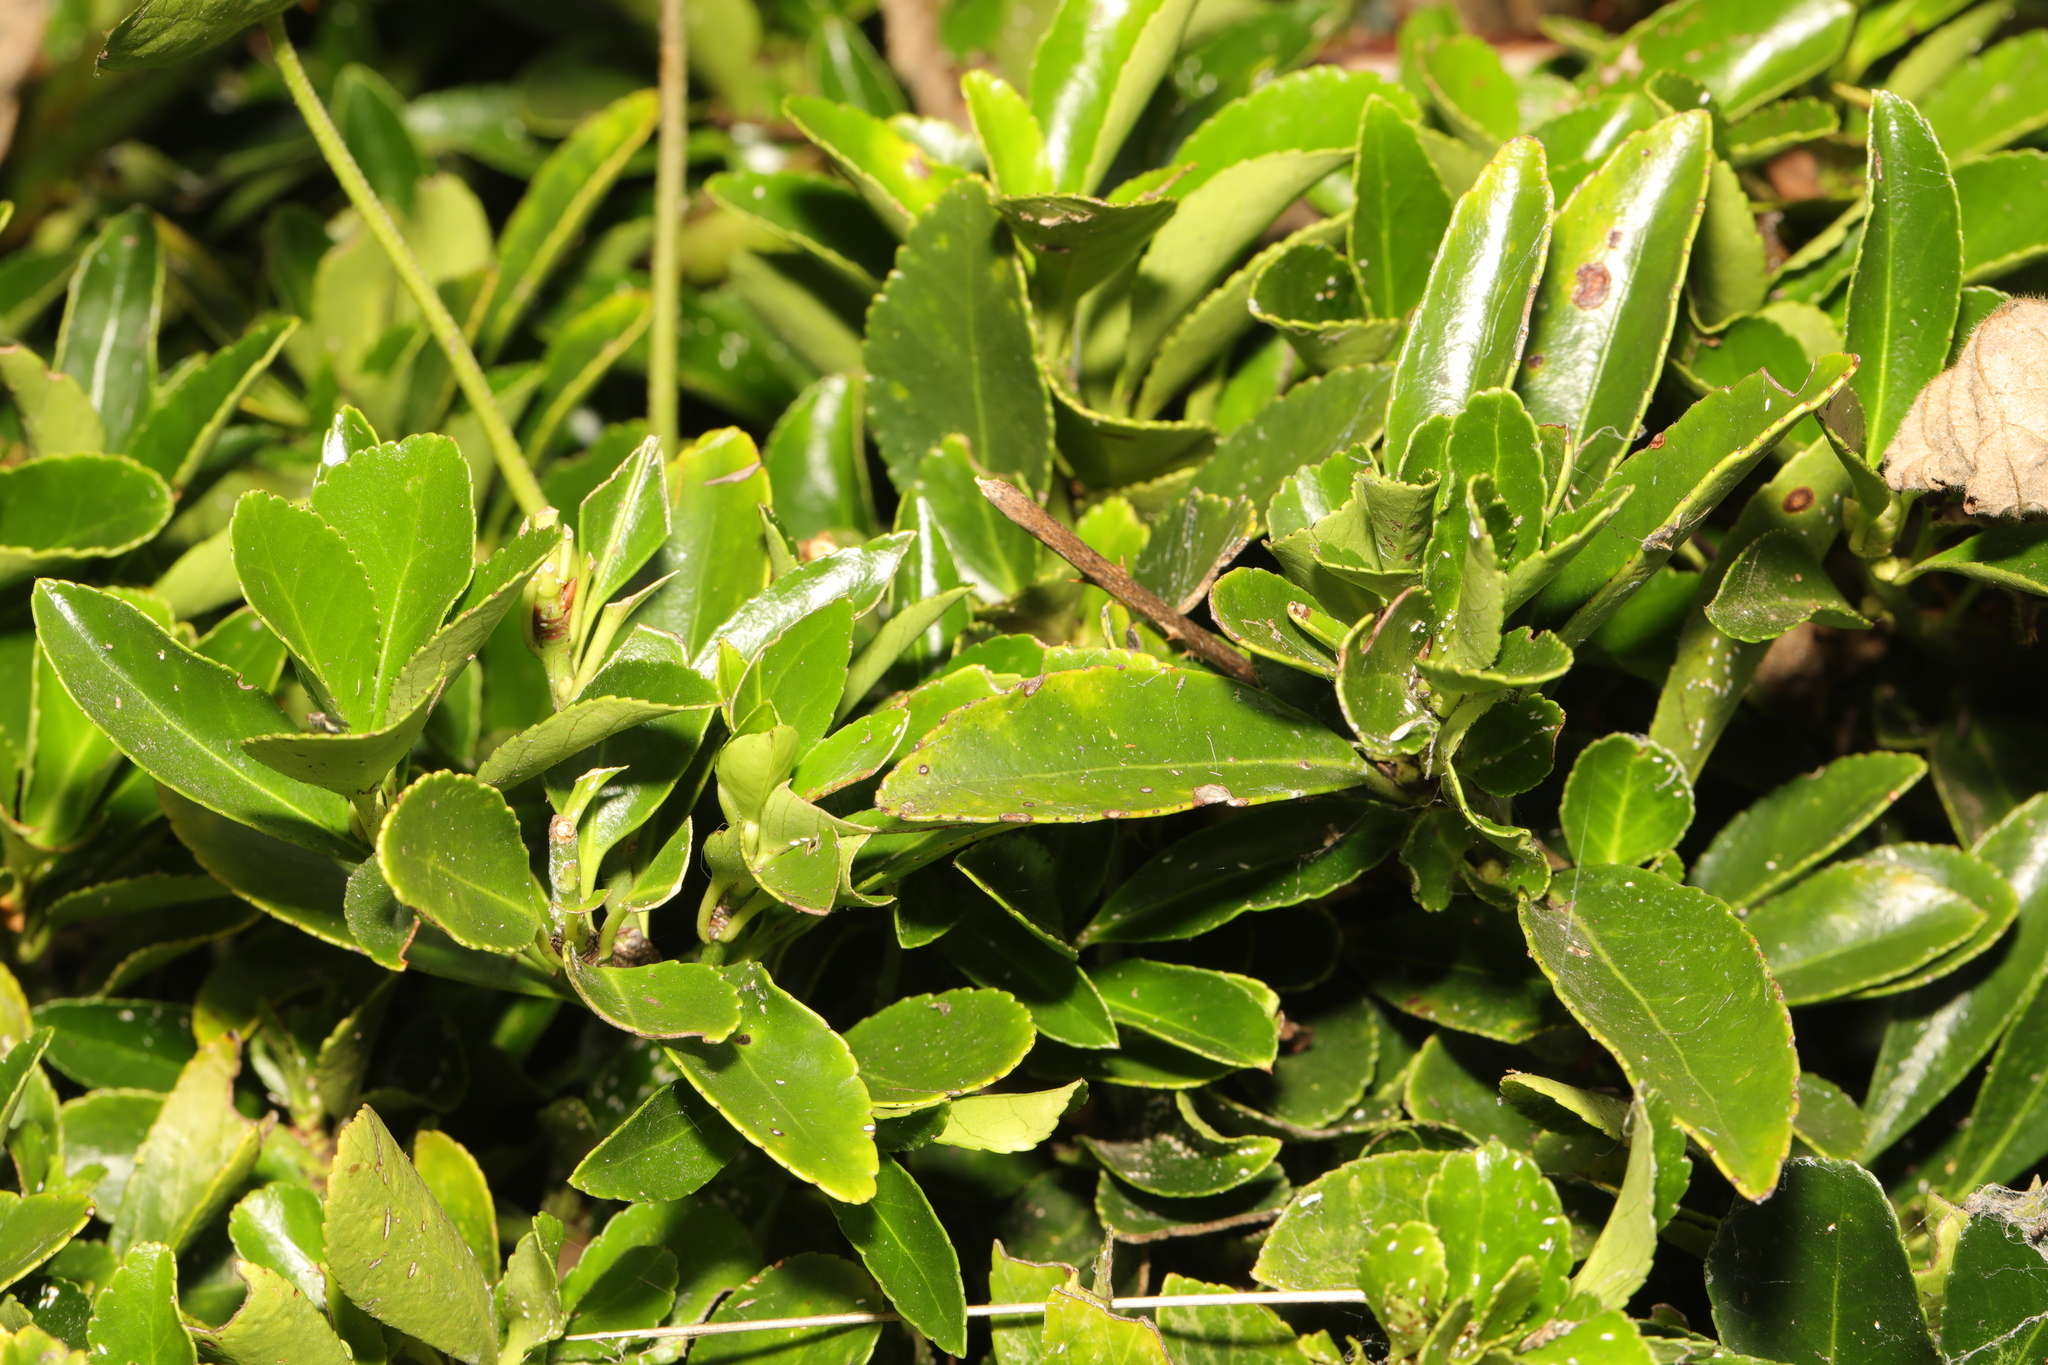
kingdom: Plantae
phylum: Tracheophyta
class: Magnoliopsida
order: Celastrales
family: Celastraceae
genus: Euonymus
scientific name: Euonymus japonicus
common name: Japanese spindletree
